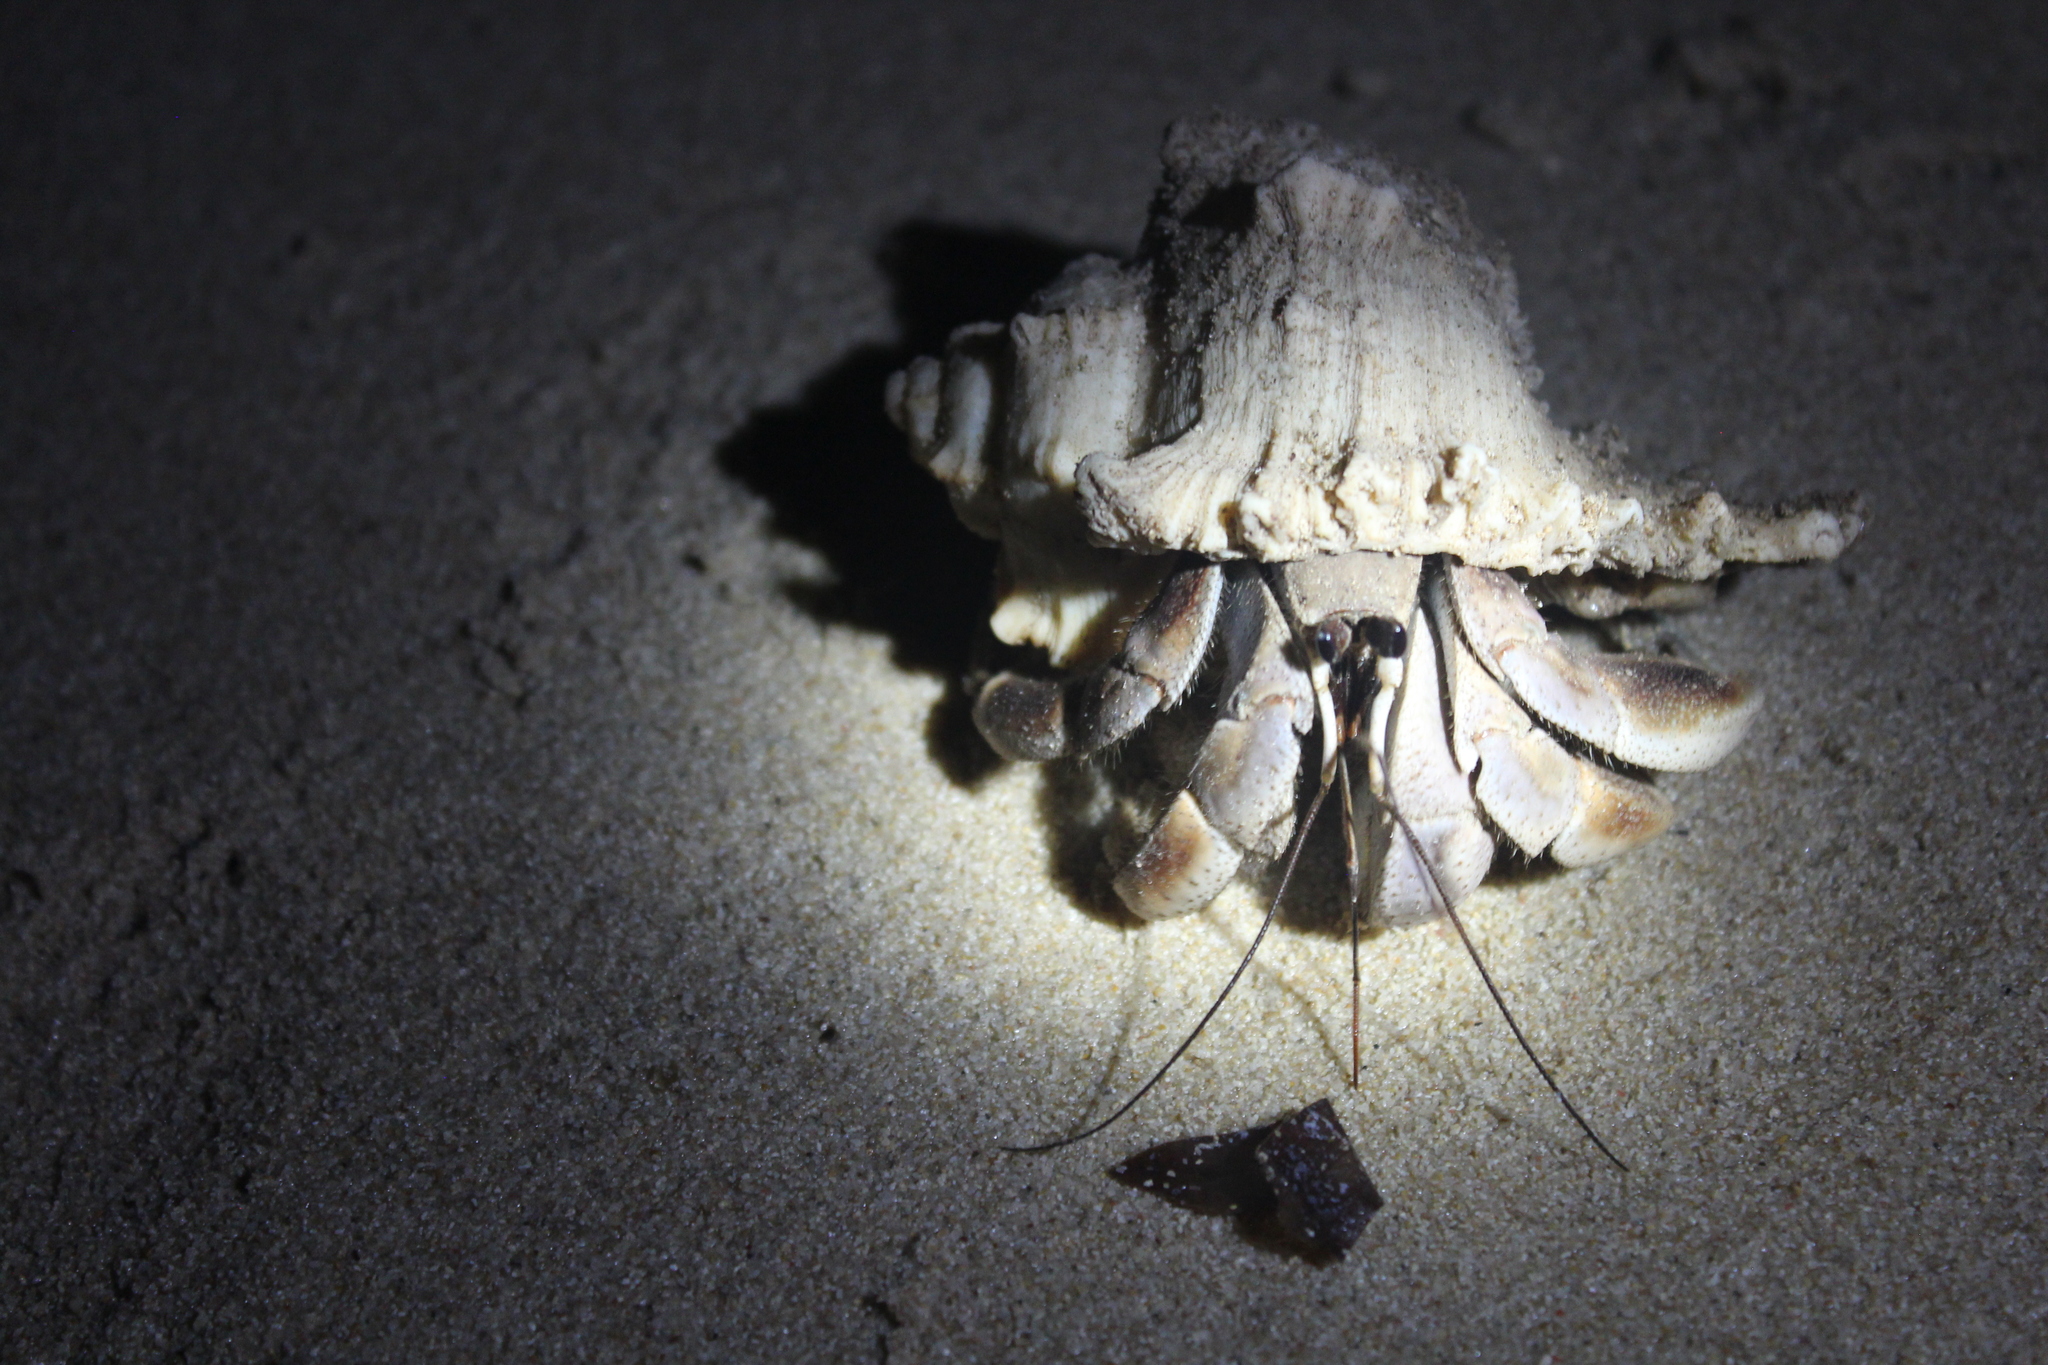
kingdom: Animalia
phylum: Arthropoda
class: Malacostraca
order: Decapoda
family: Coenobitidae
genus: Coenobita
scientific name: Coenobita violascens
